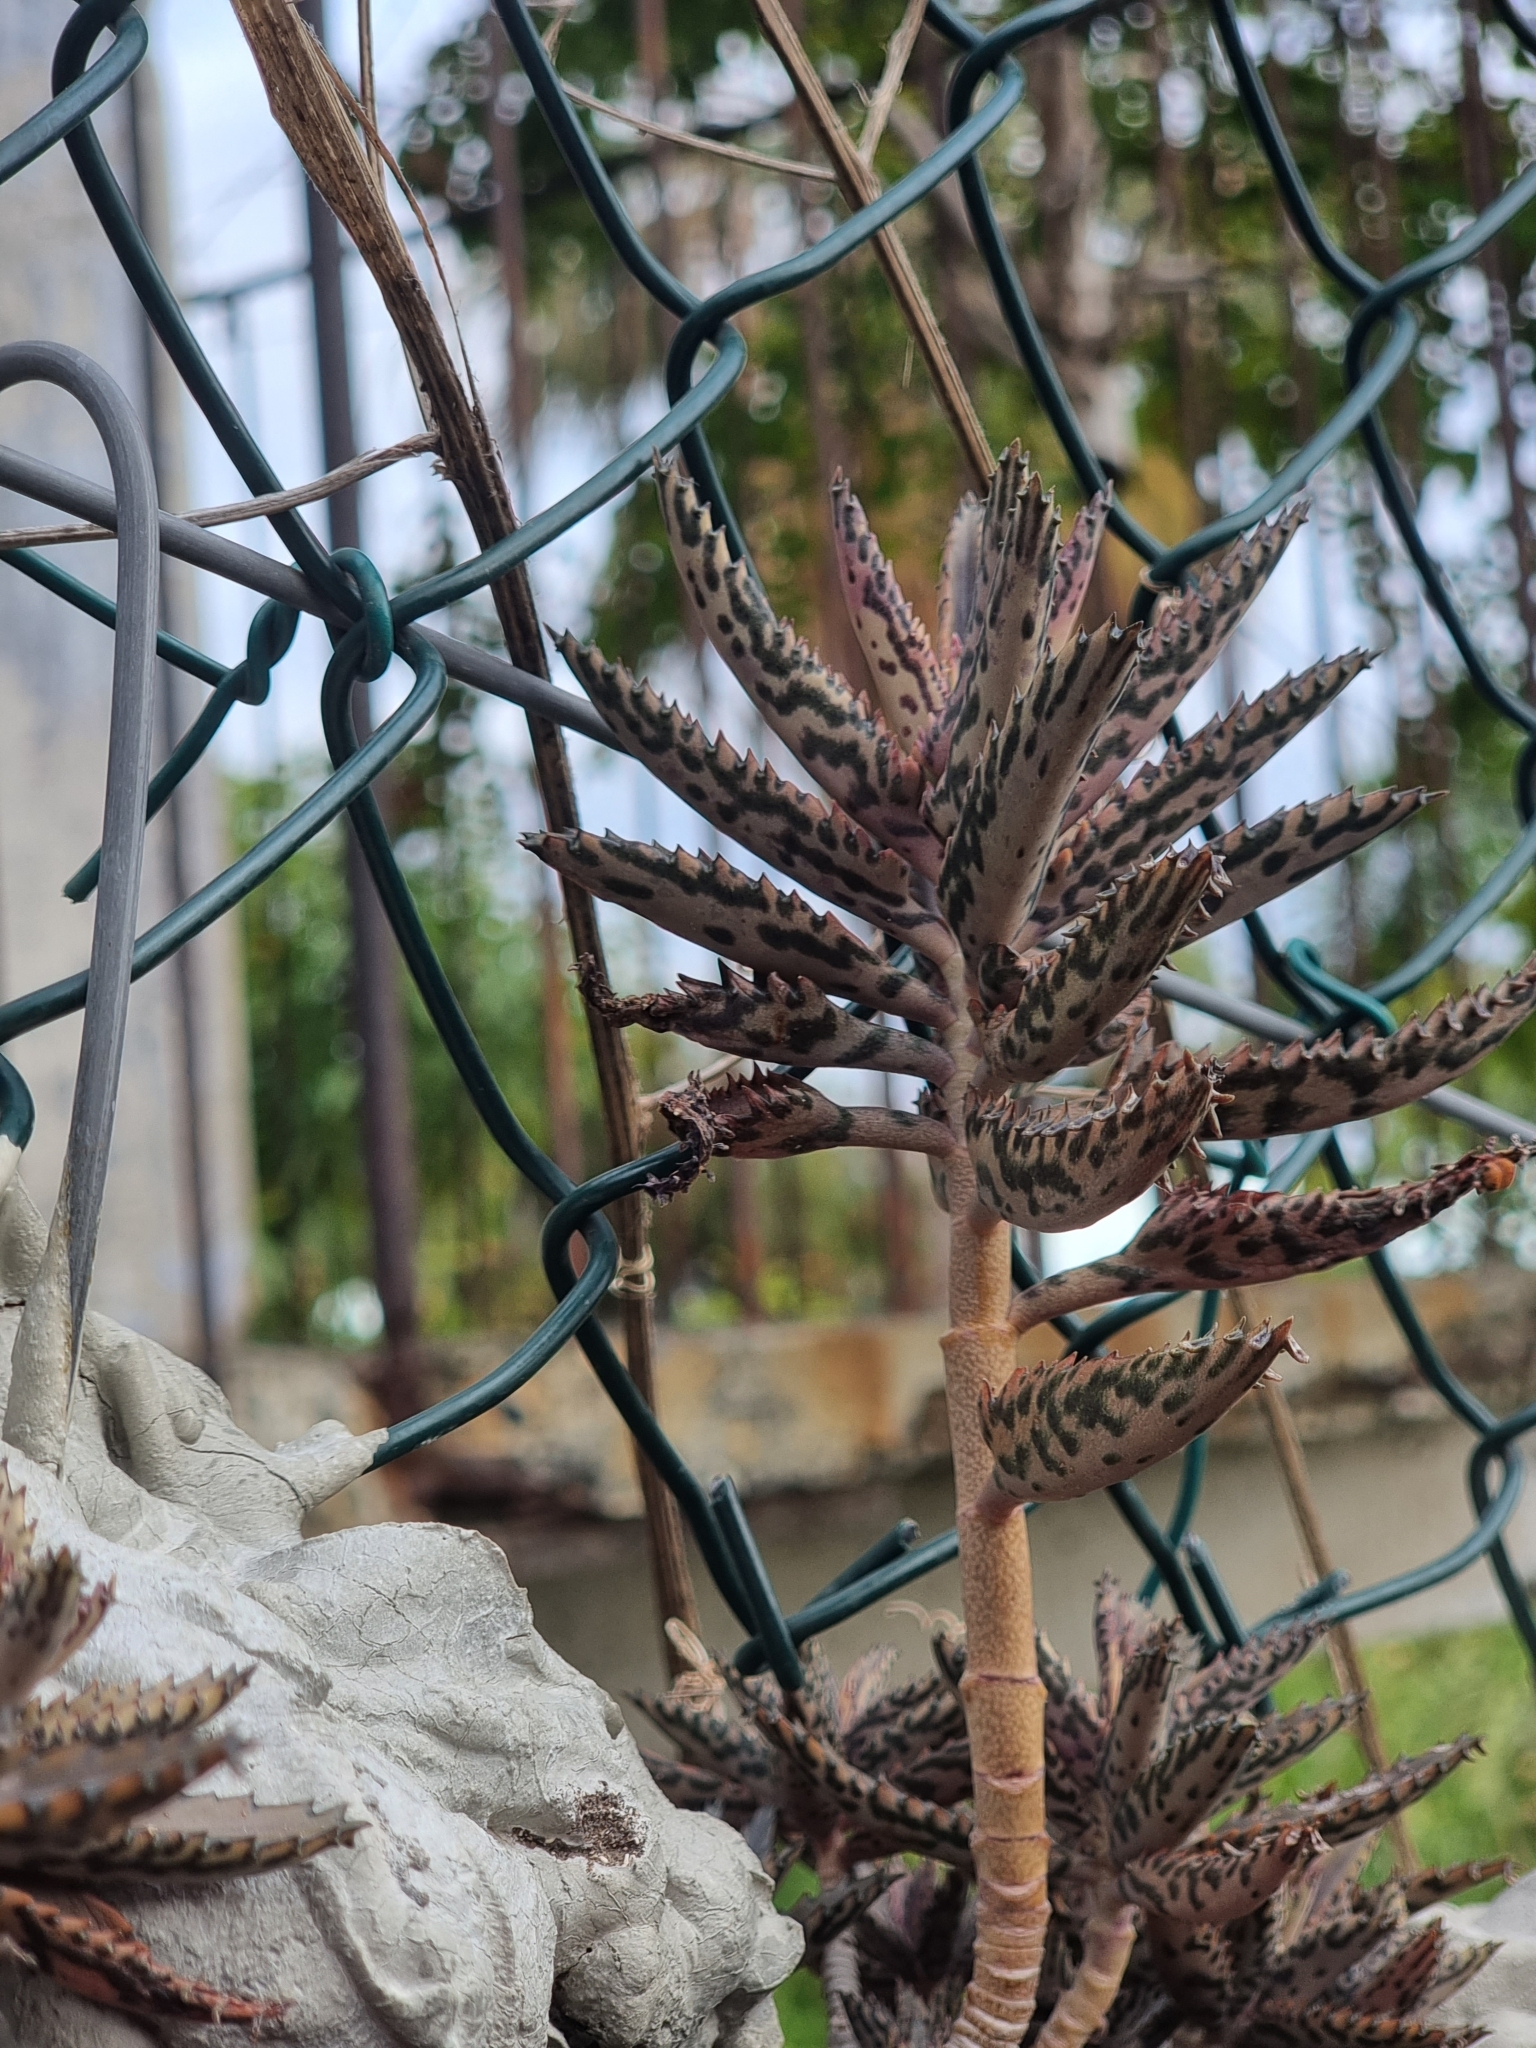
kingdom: Plantae
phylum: Tracheophyta
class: Magnoliopsida
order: Saxifragales
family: Crassulaceae
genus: Kalanchoe
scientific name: Kalanchoe houghtonii
